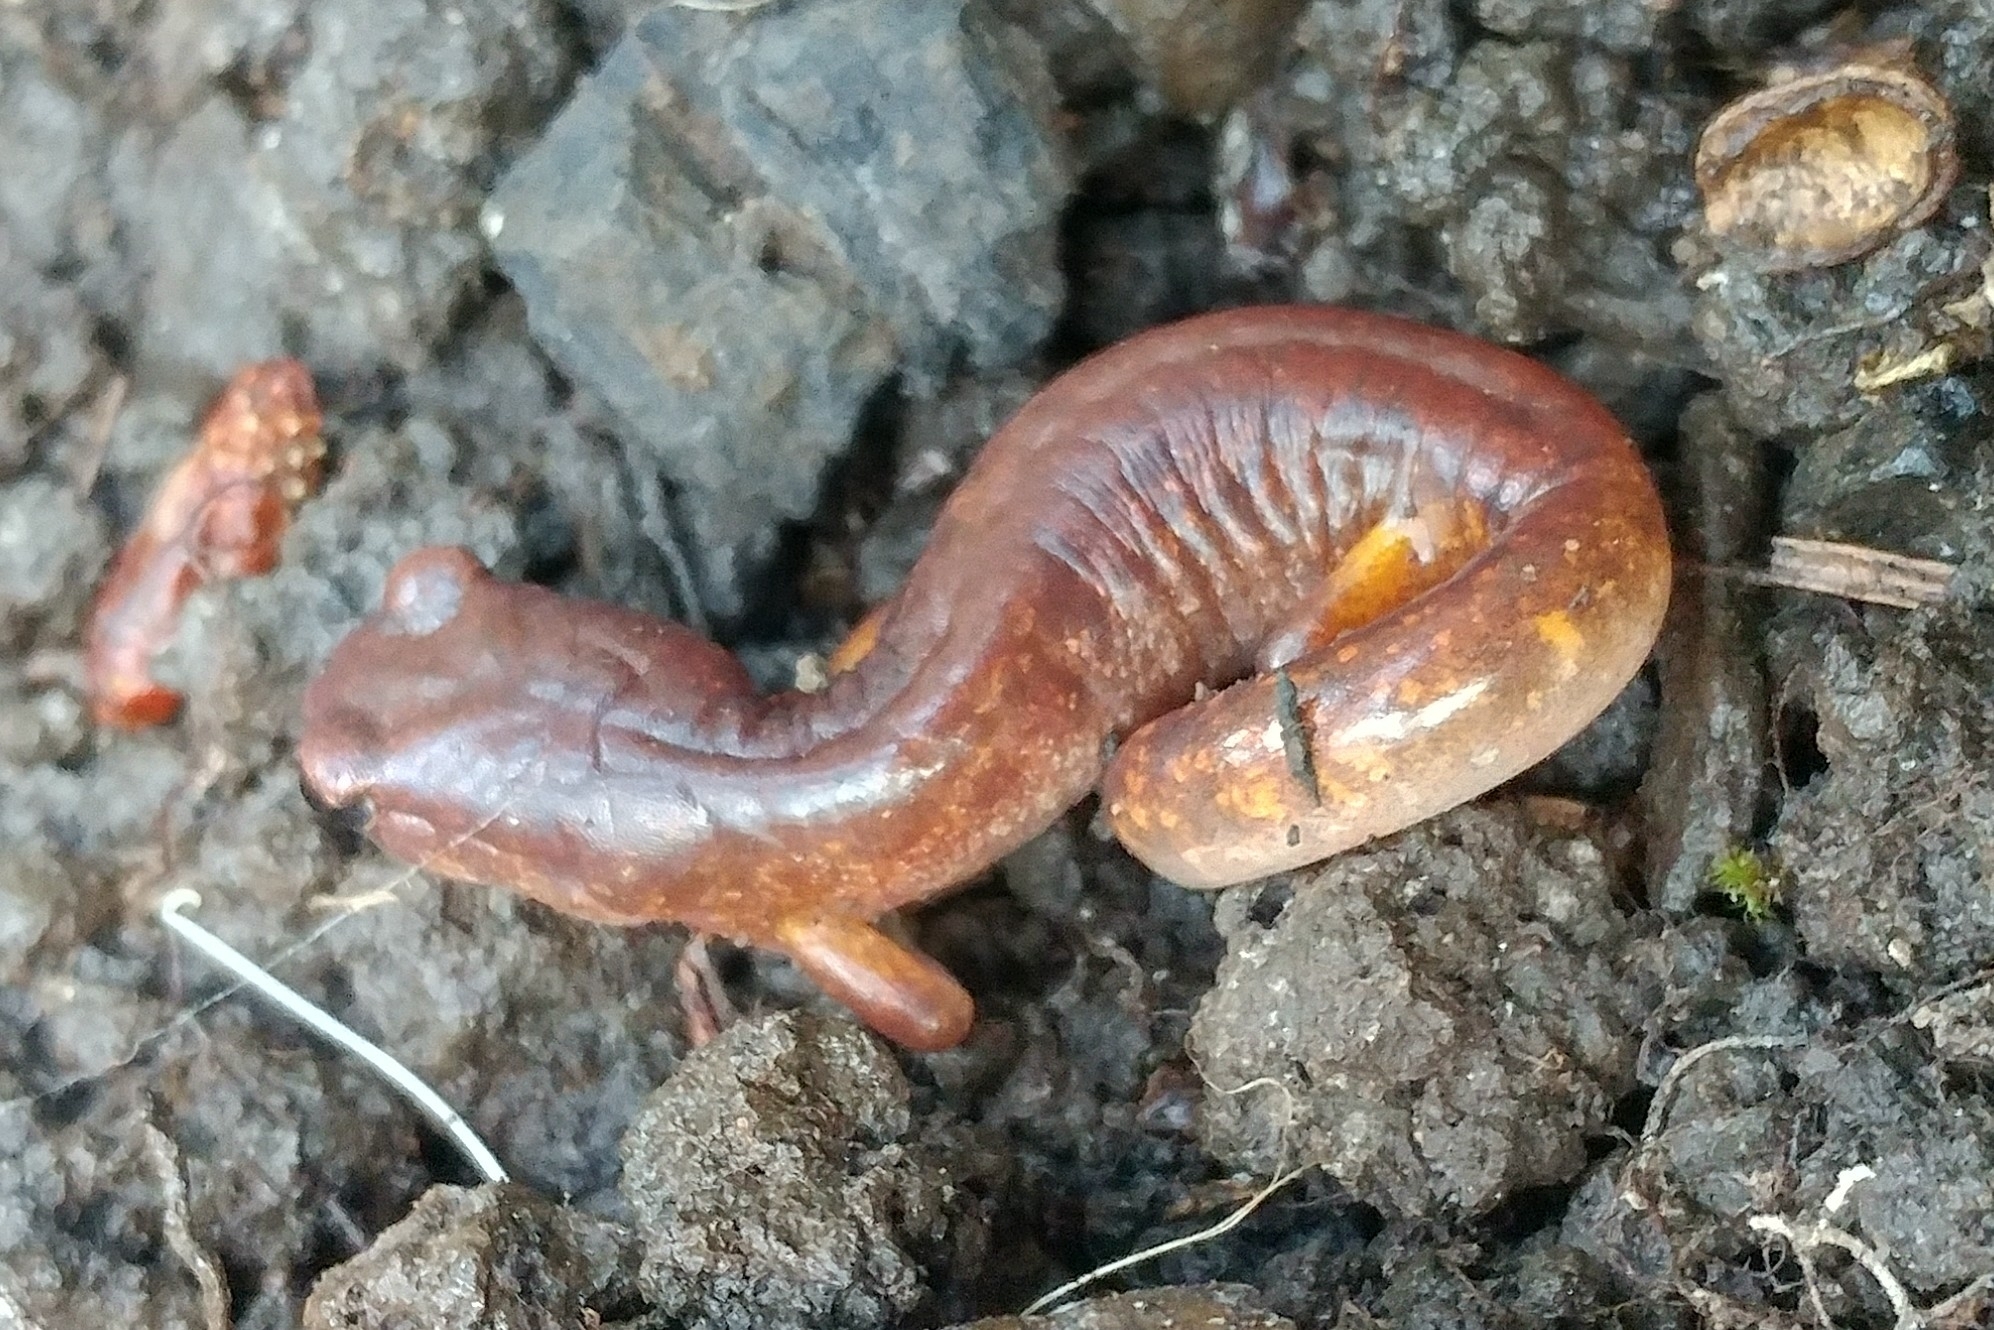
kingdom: Animalia
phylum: Chordata
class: Amphibia
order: Caudata
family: Plethodontidae
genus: Ensatina
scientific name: Ensatina eschscholtzii
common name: Ensatina
